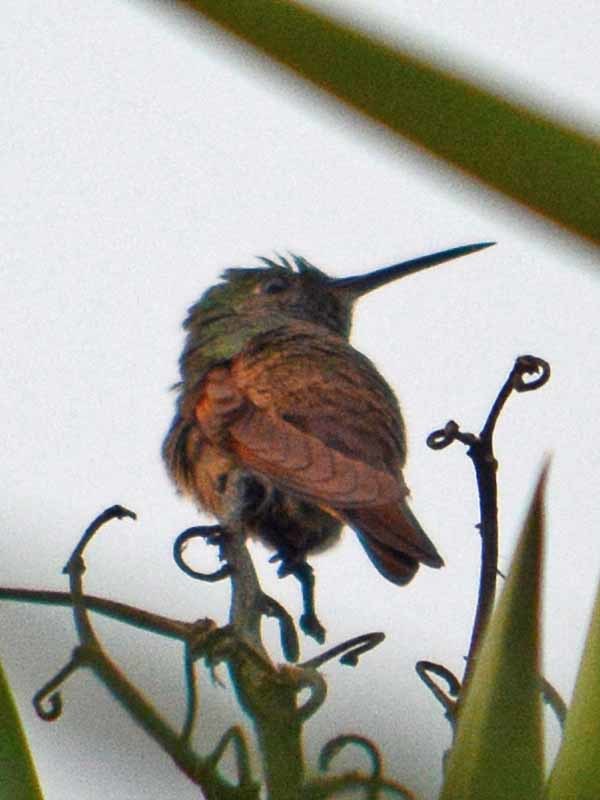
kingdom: Animalia
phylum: Chordata
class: Aves
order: Apodiformes
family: Trochilidae
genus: Saucerottia
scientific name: Saucerottia beryllina
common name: Berylline hummingbird
